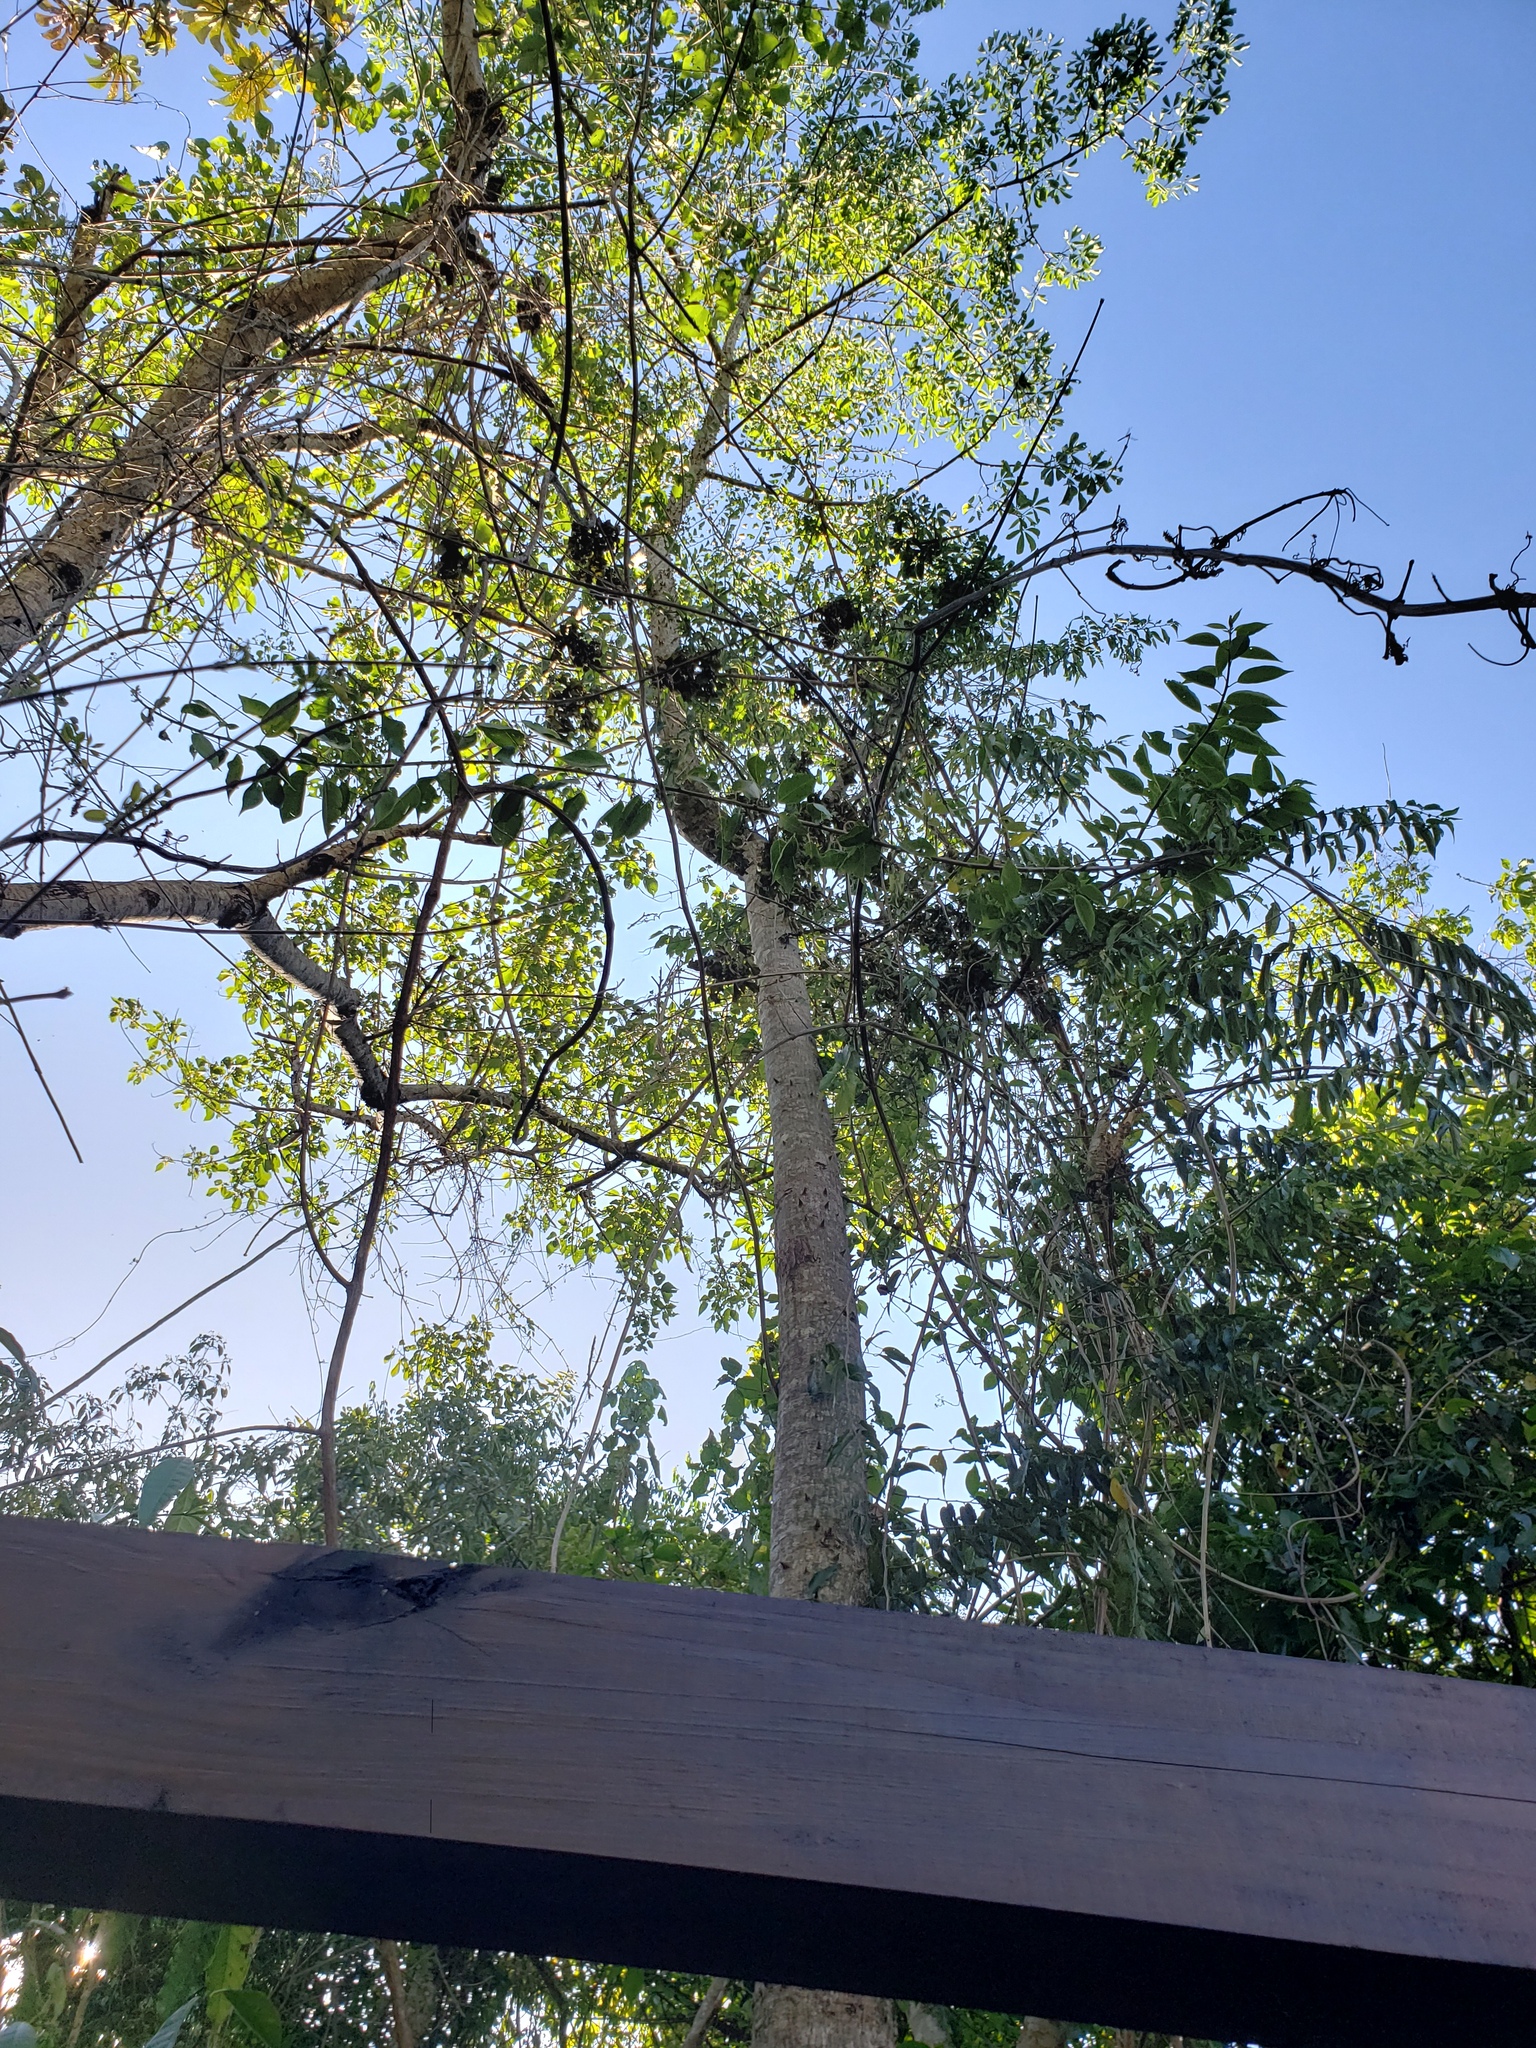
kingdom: Plantae
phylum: Tracheophyta
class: Magnoliopsida
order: Malvales
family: Malvaceae
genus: Ceiba
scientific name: Ceiba speciosa
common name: Silk-floss tree
